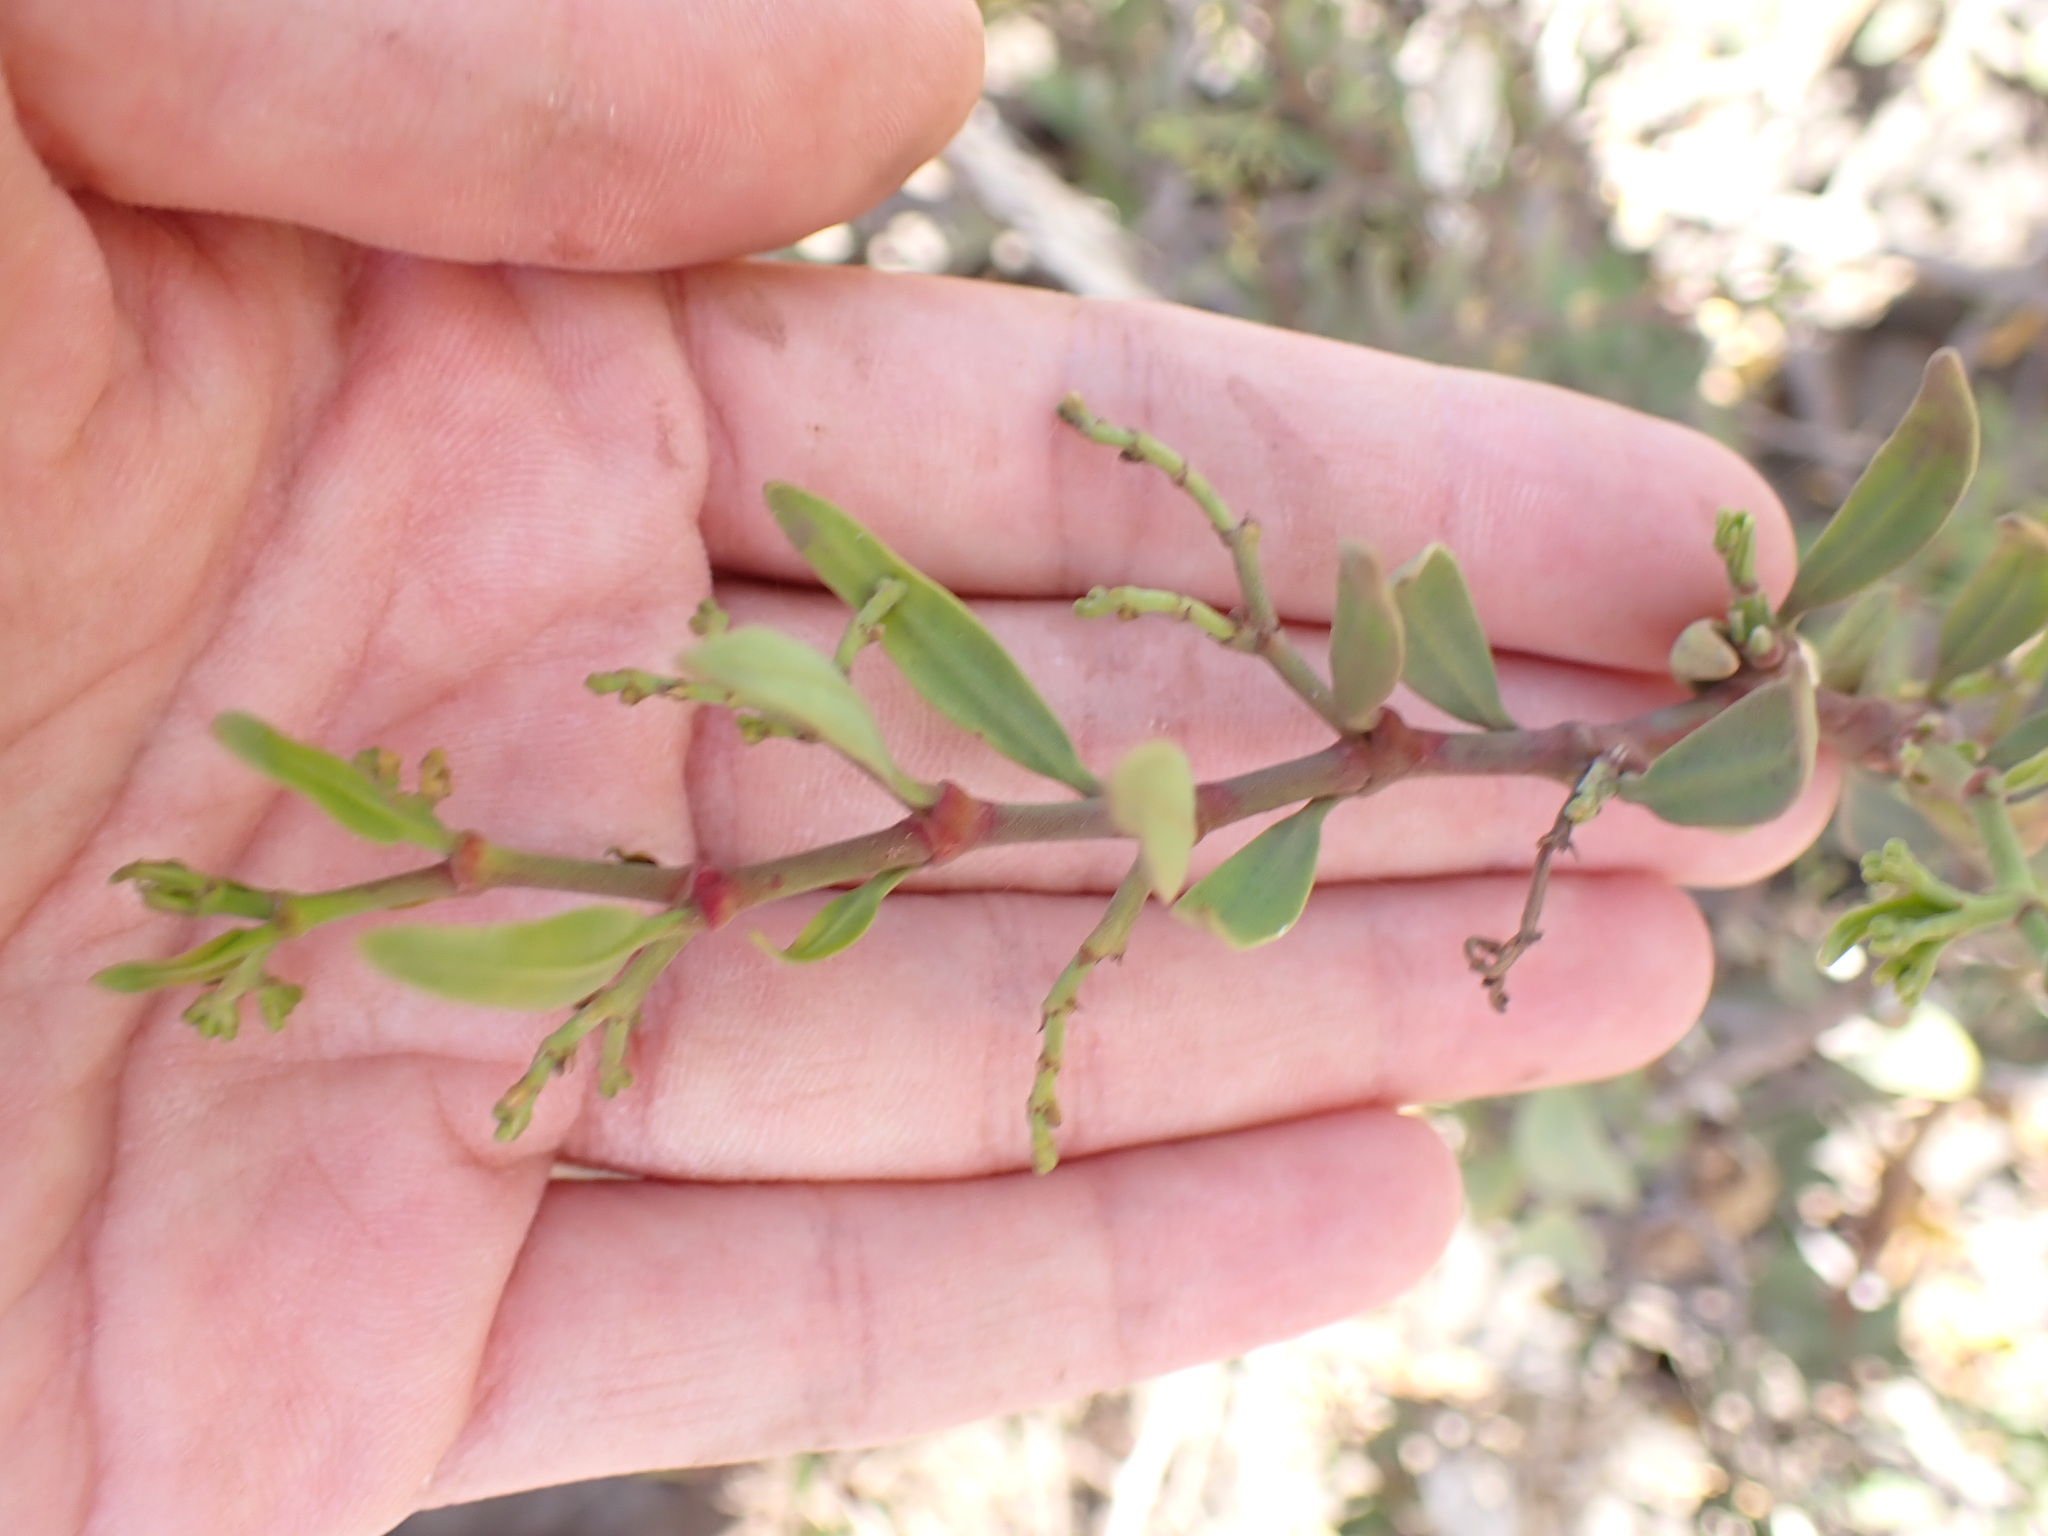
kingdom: Plantae
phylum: Tracheophyta
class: Magnoliopsida
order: Gentianales
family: Apocynaceae
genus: Periploca
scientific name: Periploca laevigata
